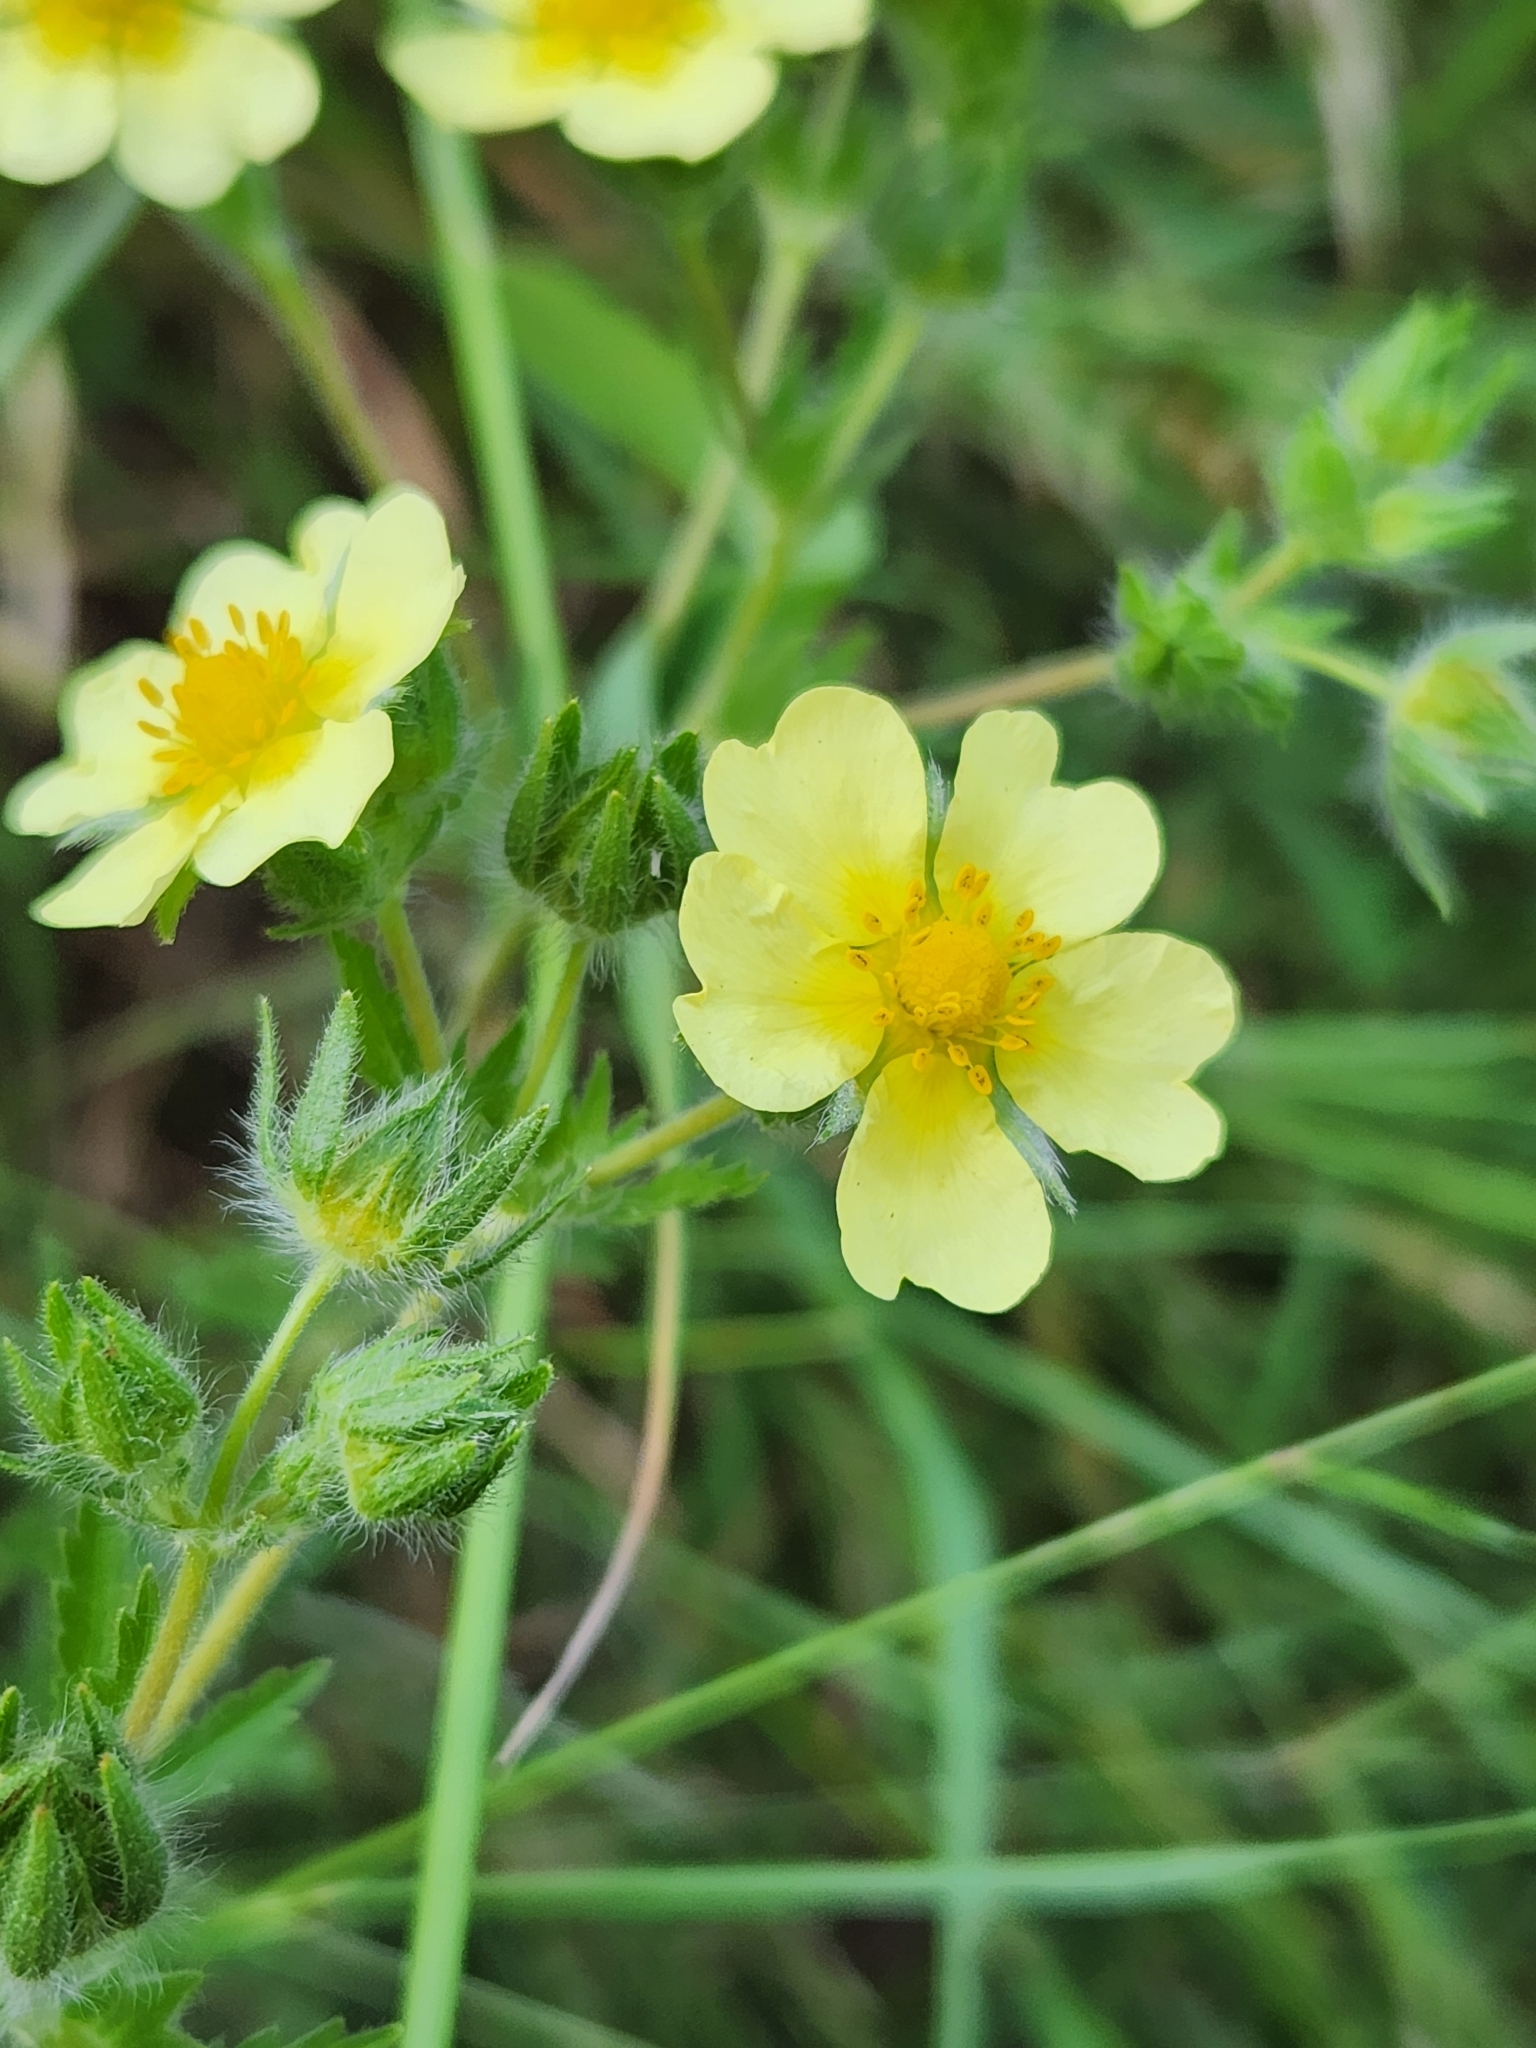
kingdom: Plantae
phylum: Tracheophyta
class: Magnoliopsida
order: Rosales
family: Rosaceae
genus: Potentilla
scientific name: Potentilla recta
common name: Sulphur cinquefoil
